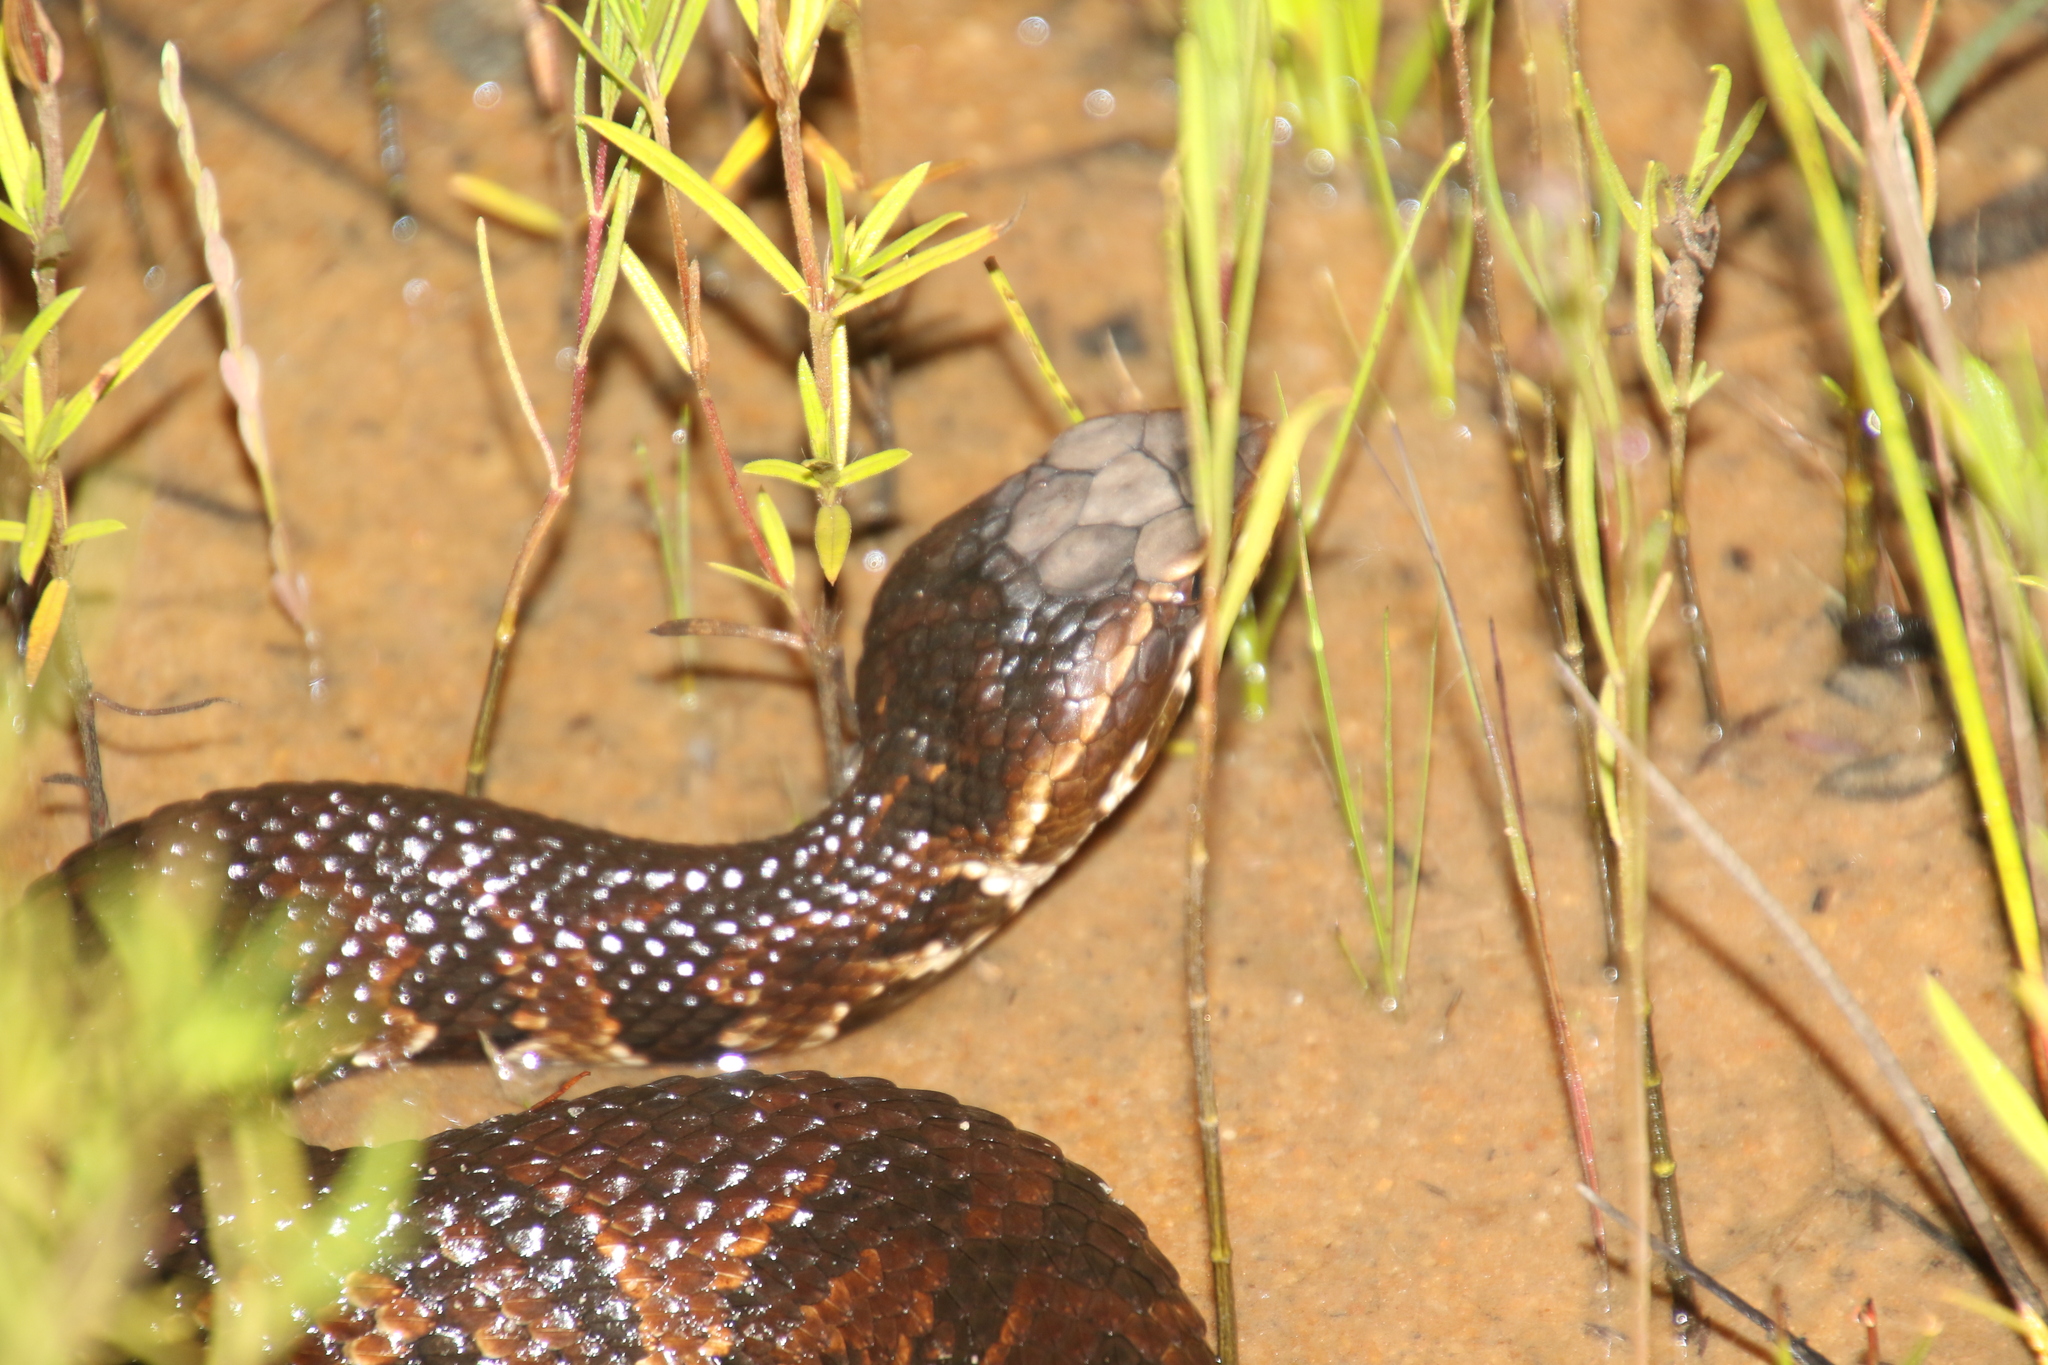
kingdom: Animalia
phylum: Chordata
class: Squamata
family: Viperidae
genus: Agkistrodon
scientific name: Agkistrodon
